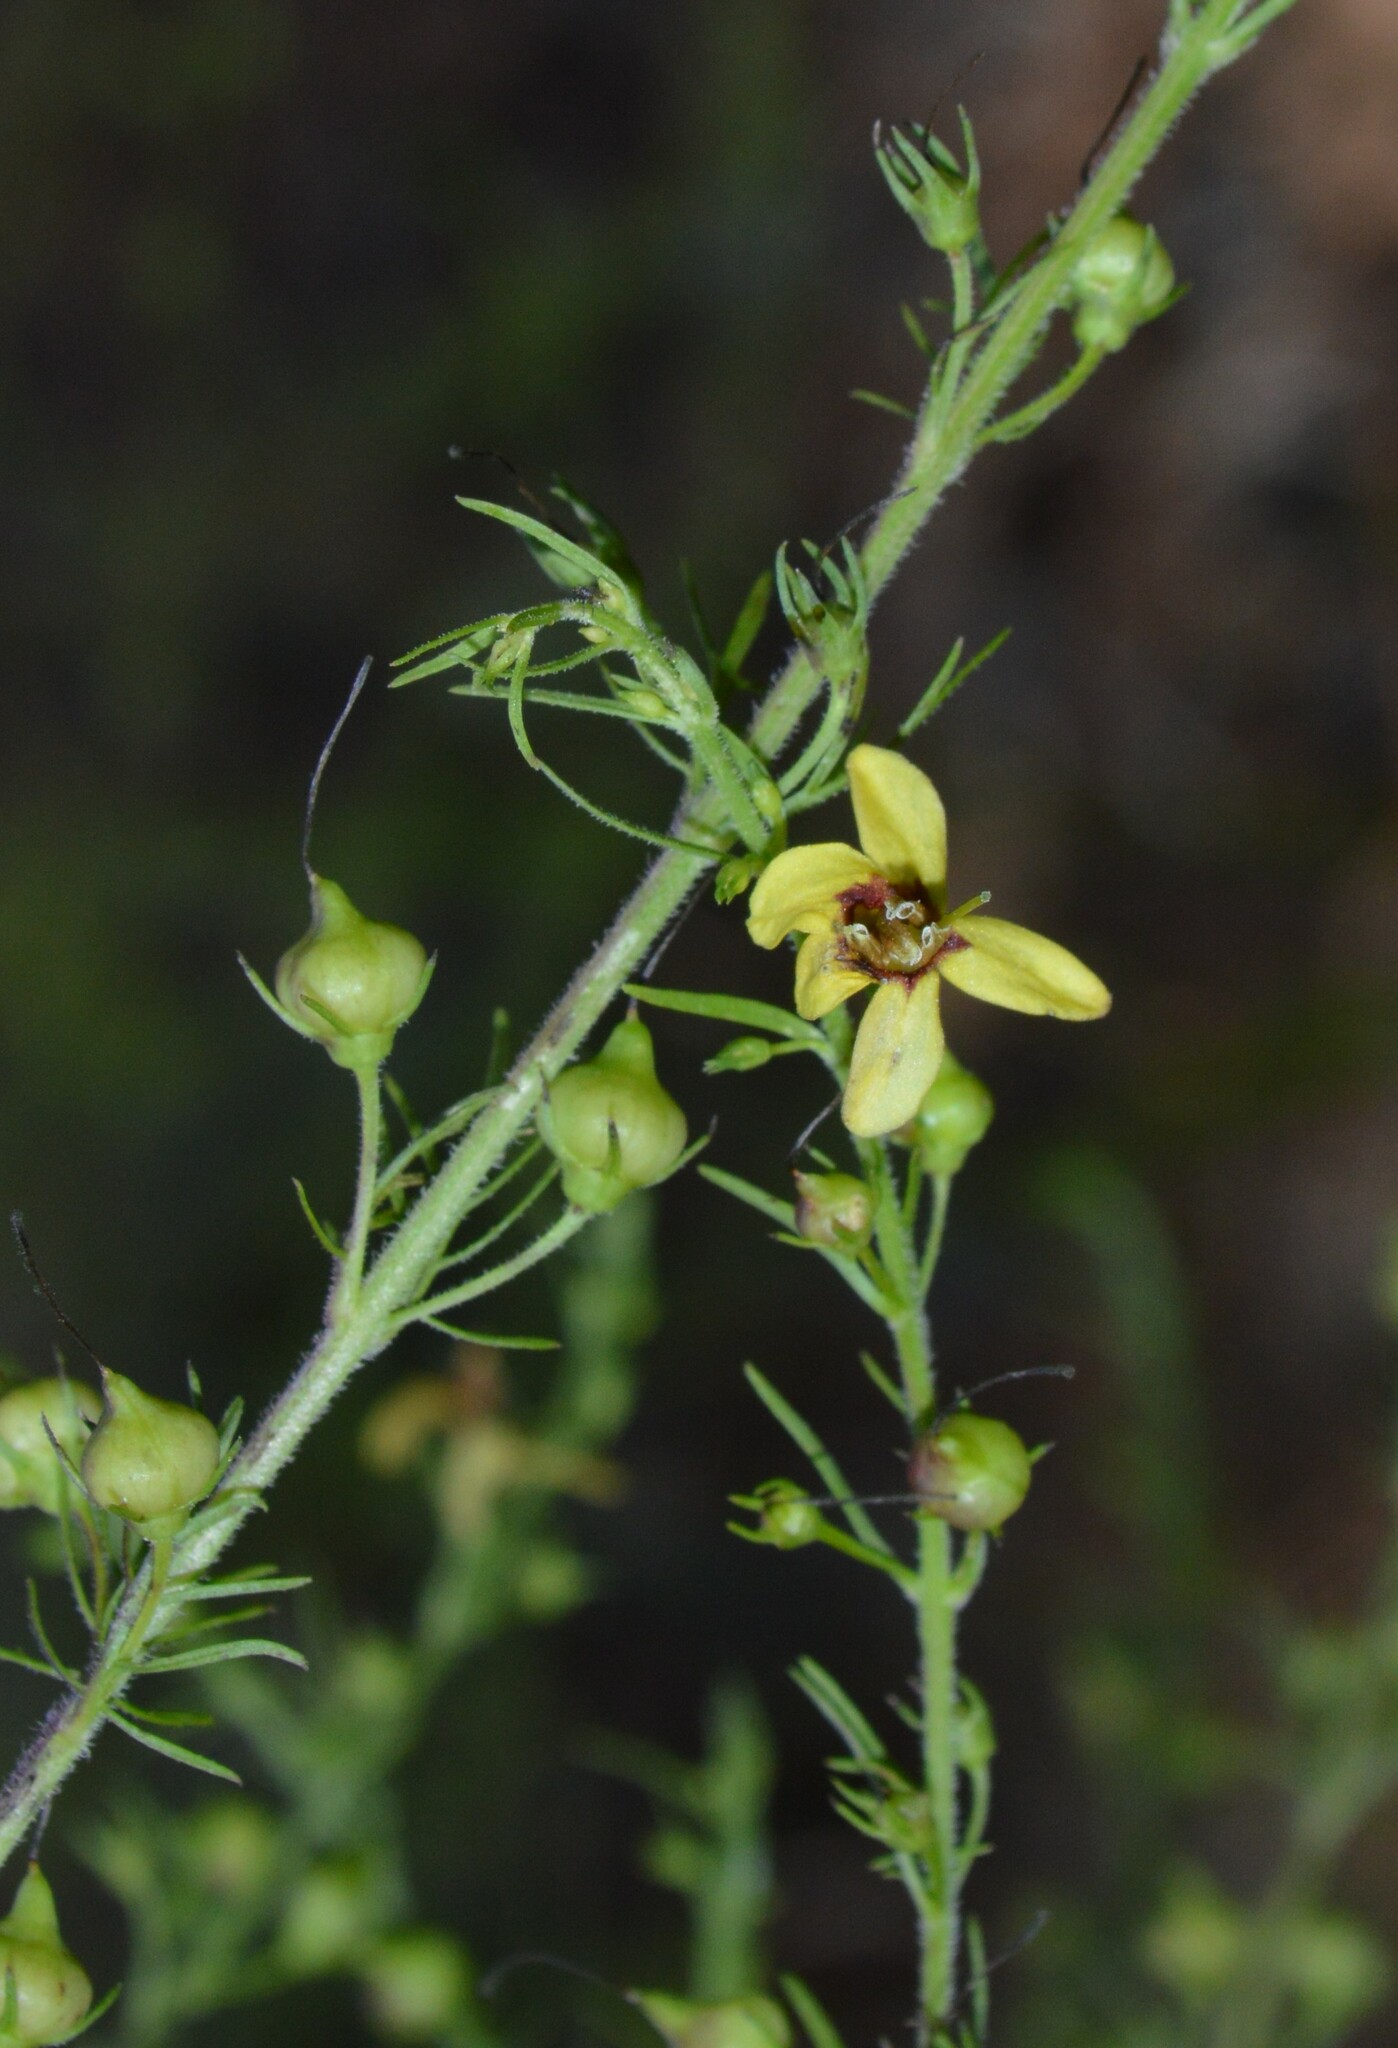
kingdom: Plantae
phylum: Tracheophyta
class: Magnoliopsida
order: Lamiales
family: Orobanchaceae
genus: Seymeria
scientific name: Seymeria cassioides
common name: Yaupon black-senna
